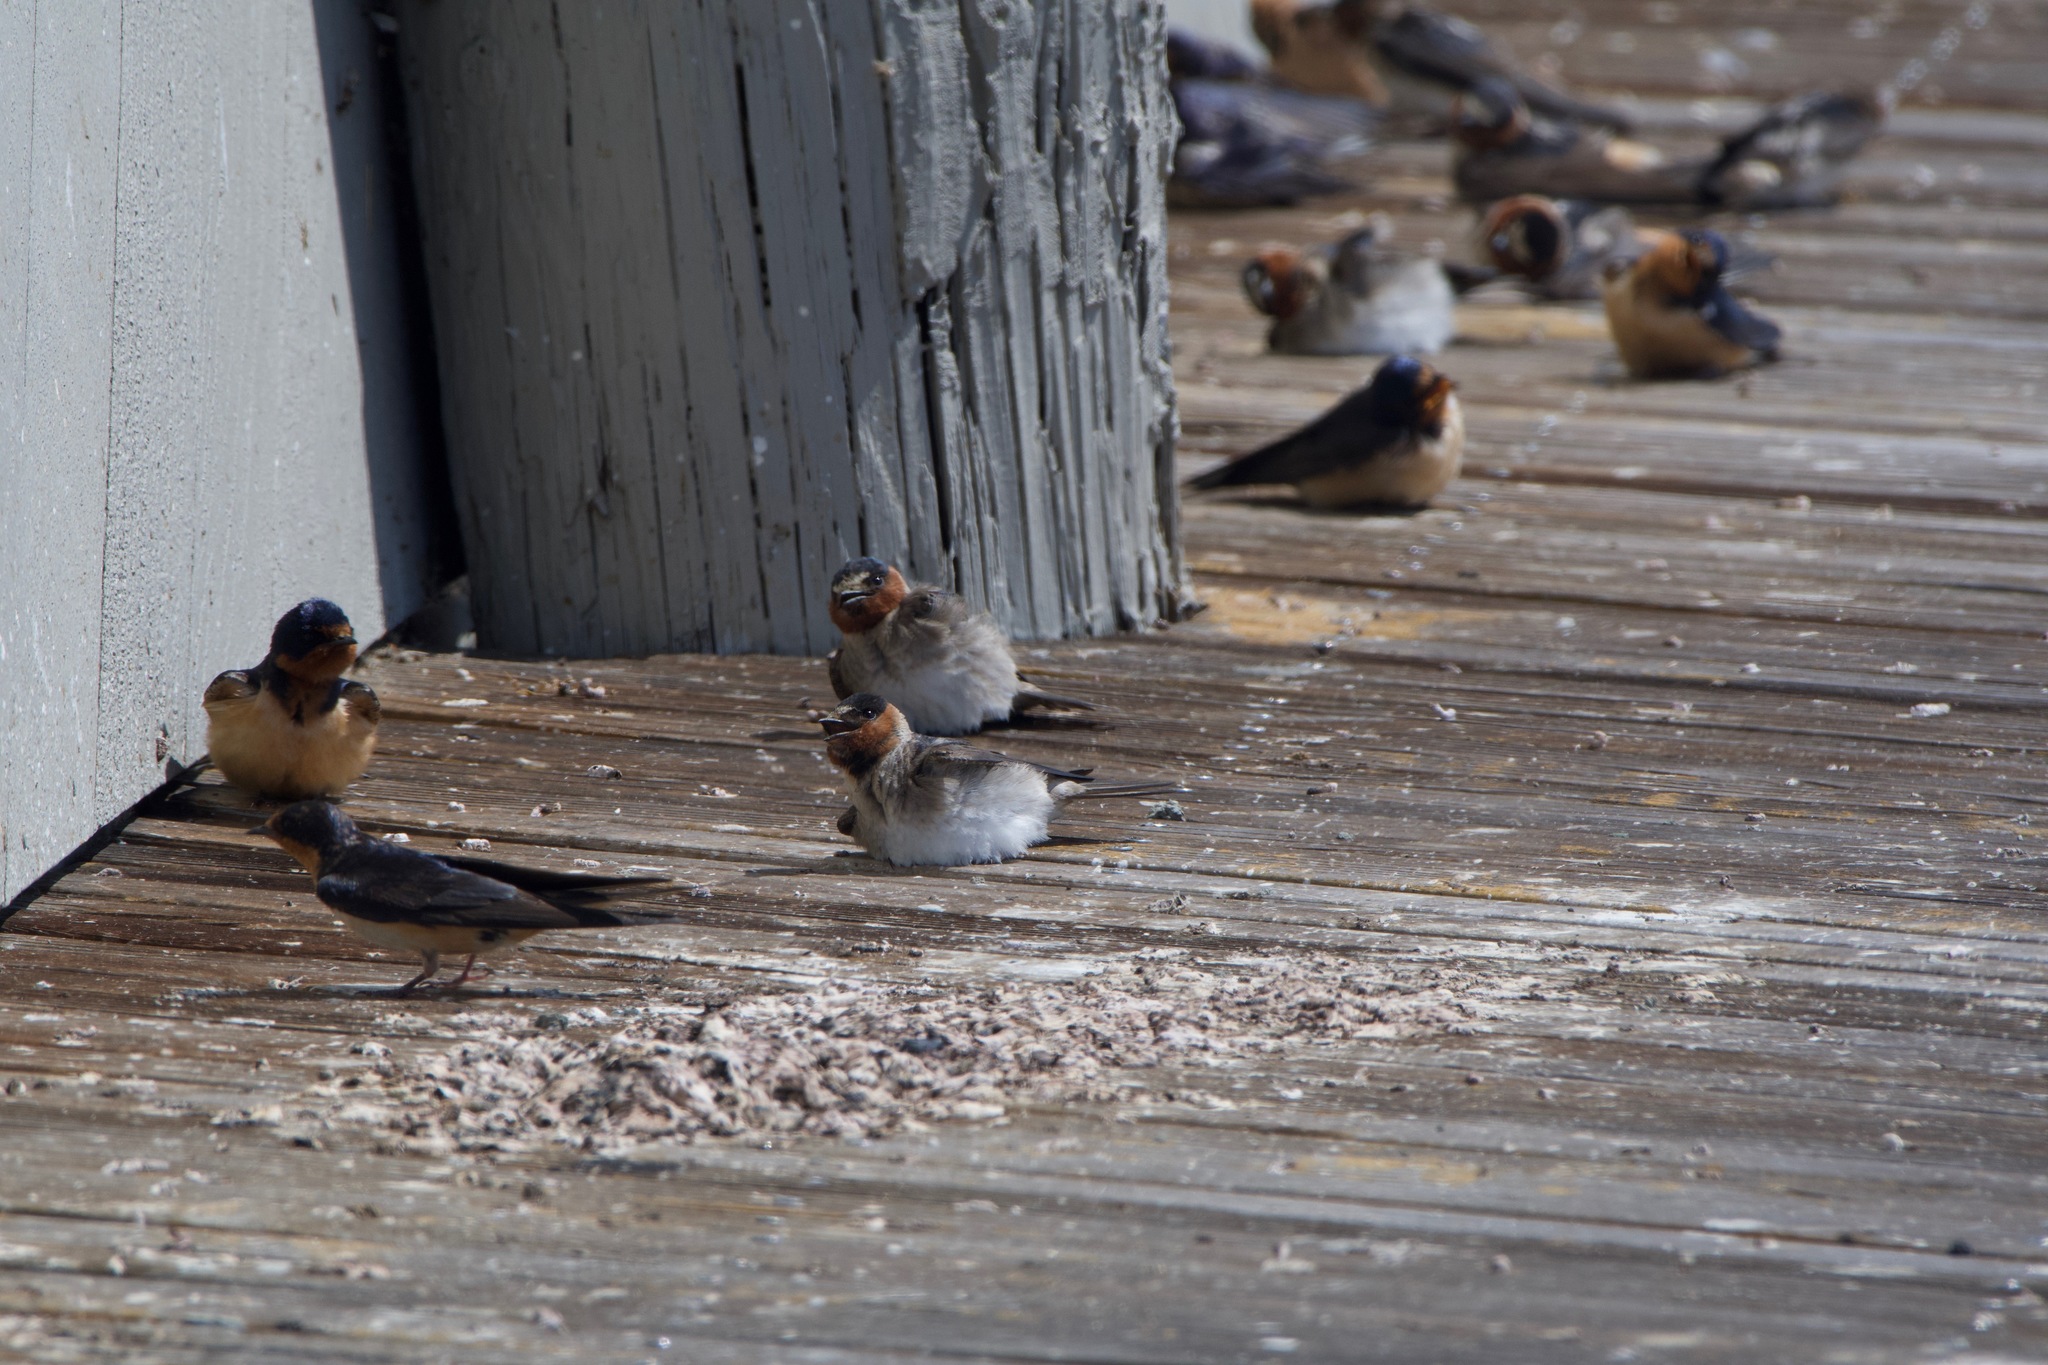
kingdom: Animalia
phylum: Chordata
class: Aves
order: Passeriformes
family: Hirundinidae
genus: Petrochelidon
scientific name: Petrochelidon pyrrhonota
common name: American cliff swallow
